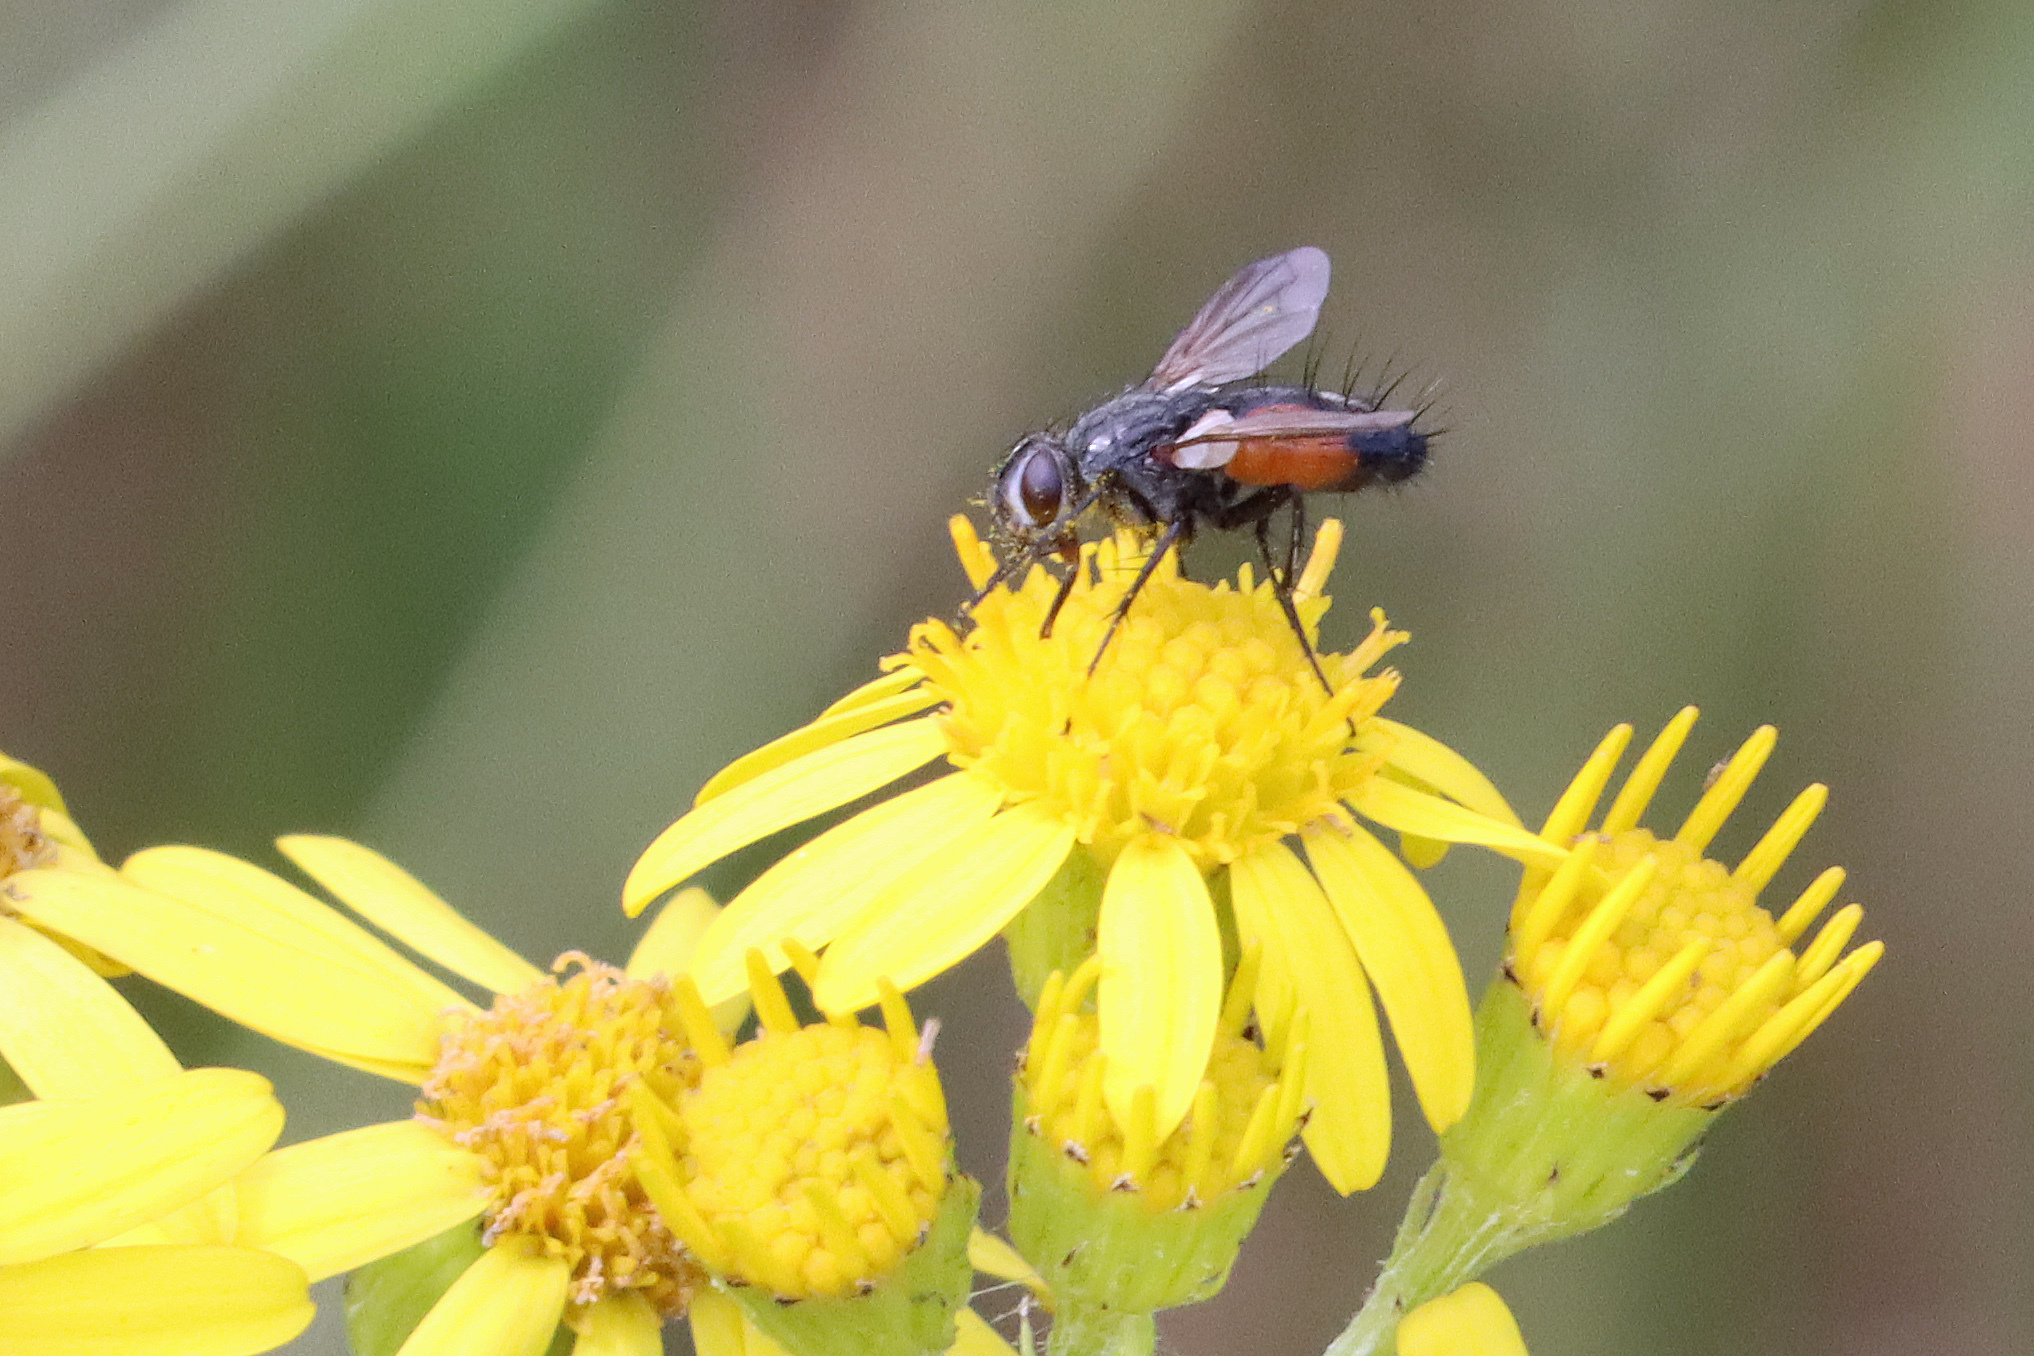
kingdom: Animalia
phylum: Arthropoda
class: Insecta
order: Diptera
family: Tachinidae
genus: Eriothrix
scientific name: Eriothrix rufomaculatus
